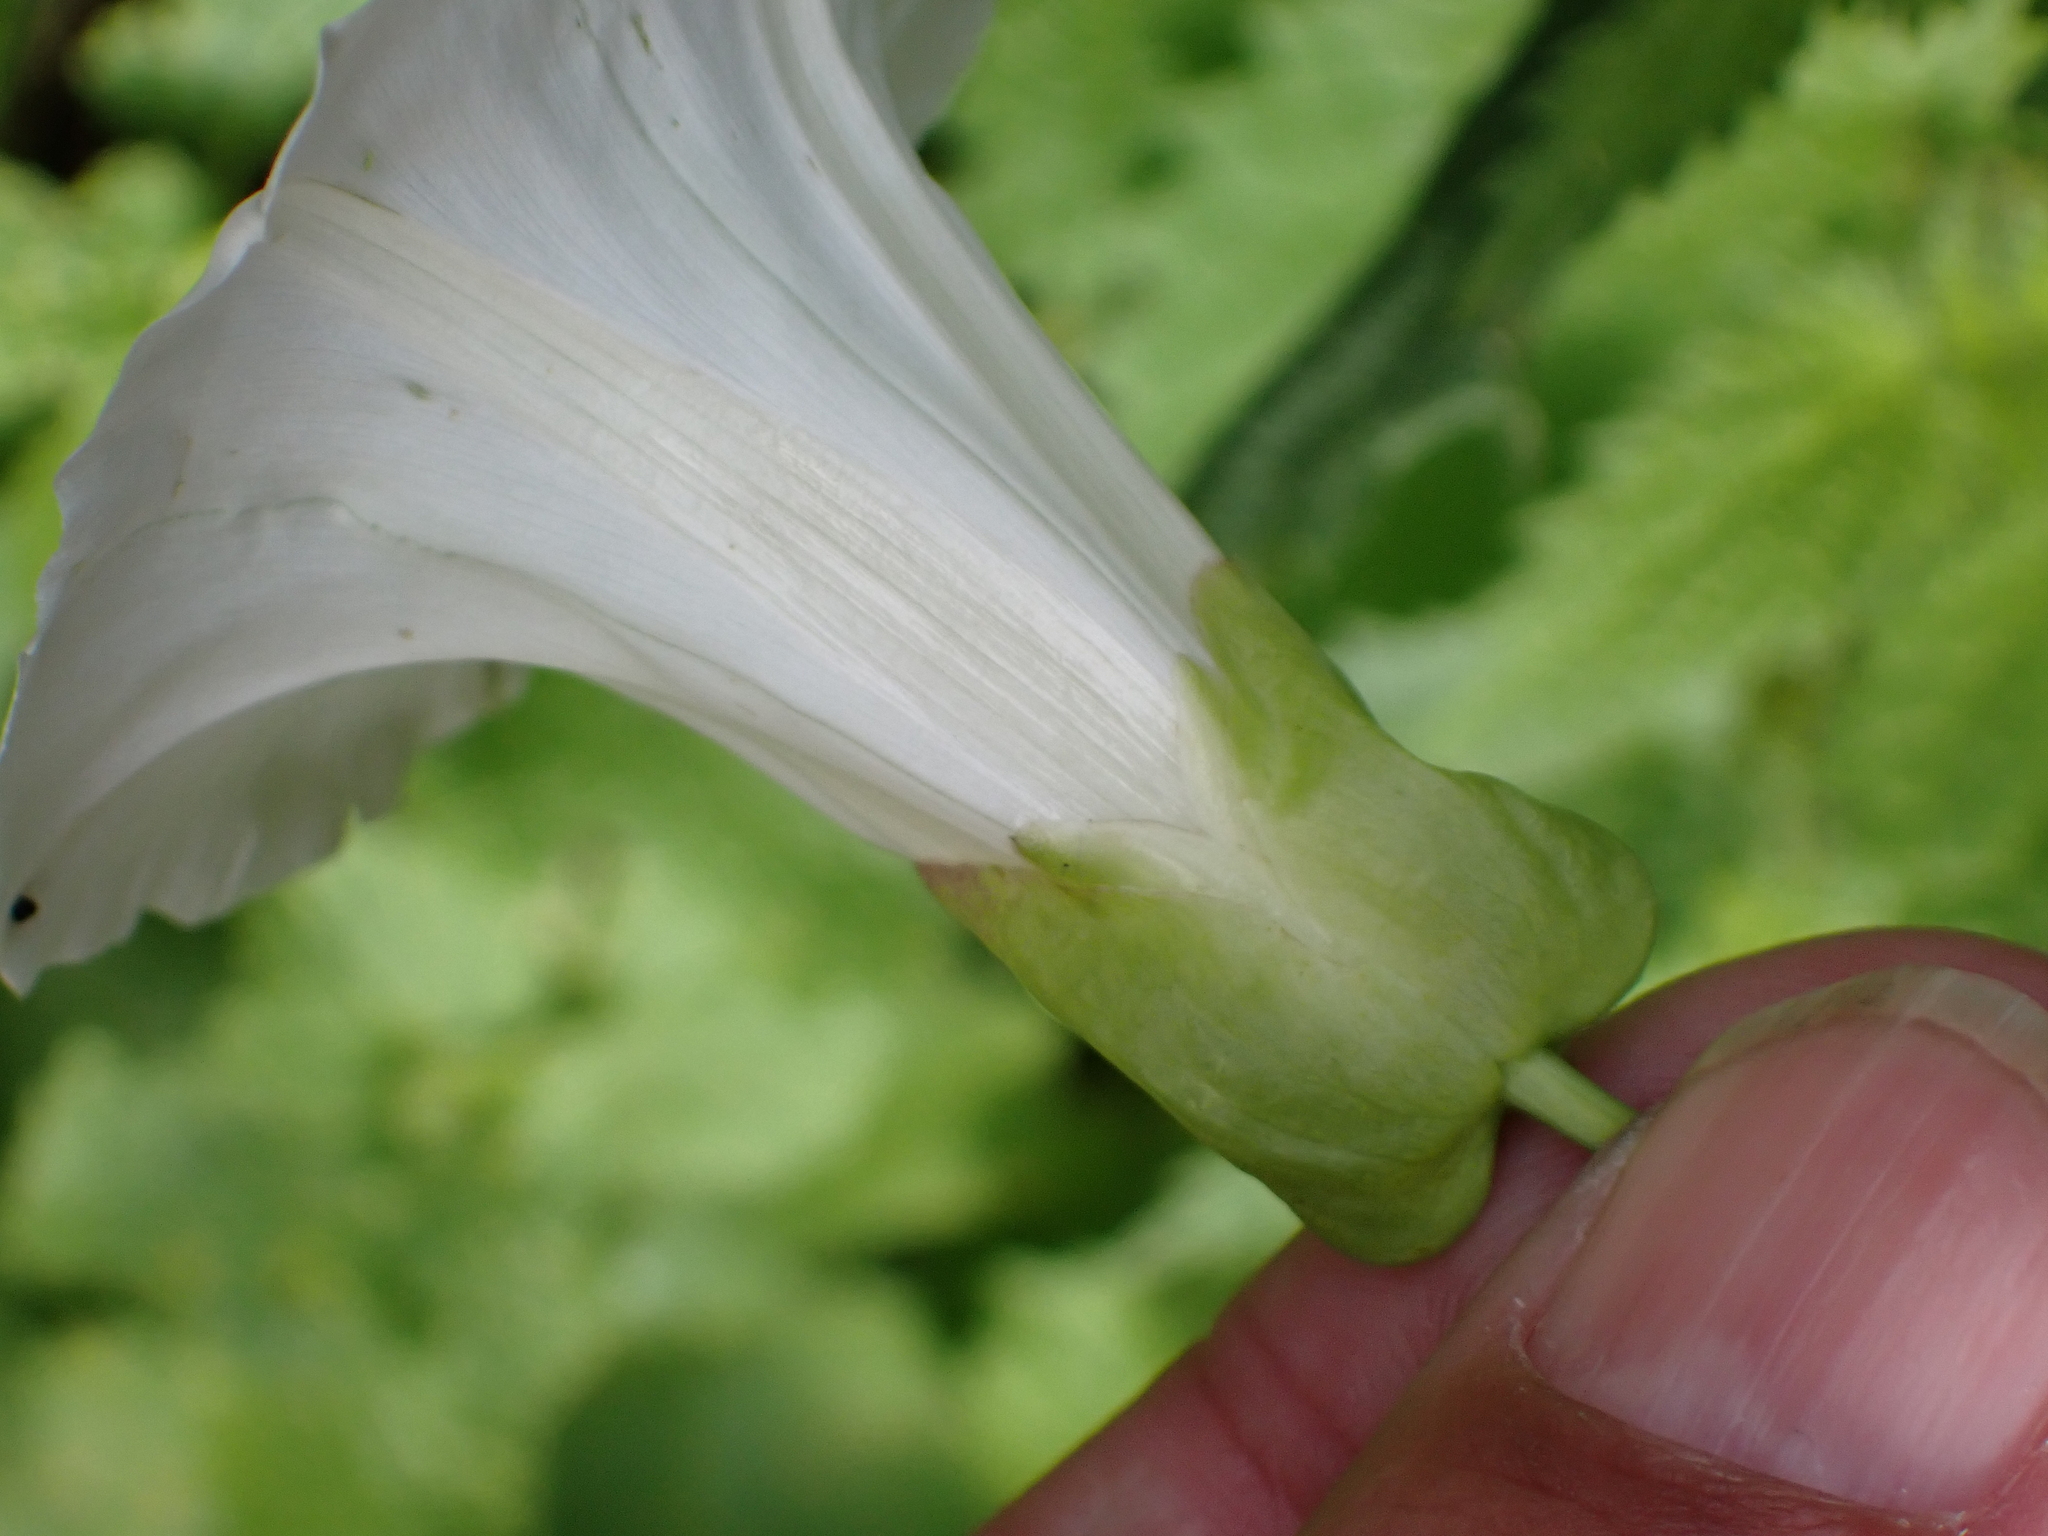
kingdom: Plantae
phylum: Tracheophyta
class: Magnoliopsida
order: Solanales
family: Convolvulaceae
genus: Calystegia
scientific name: Calystegia silvatica
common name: Large bindweed
